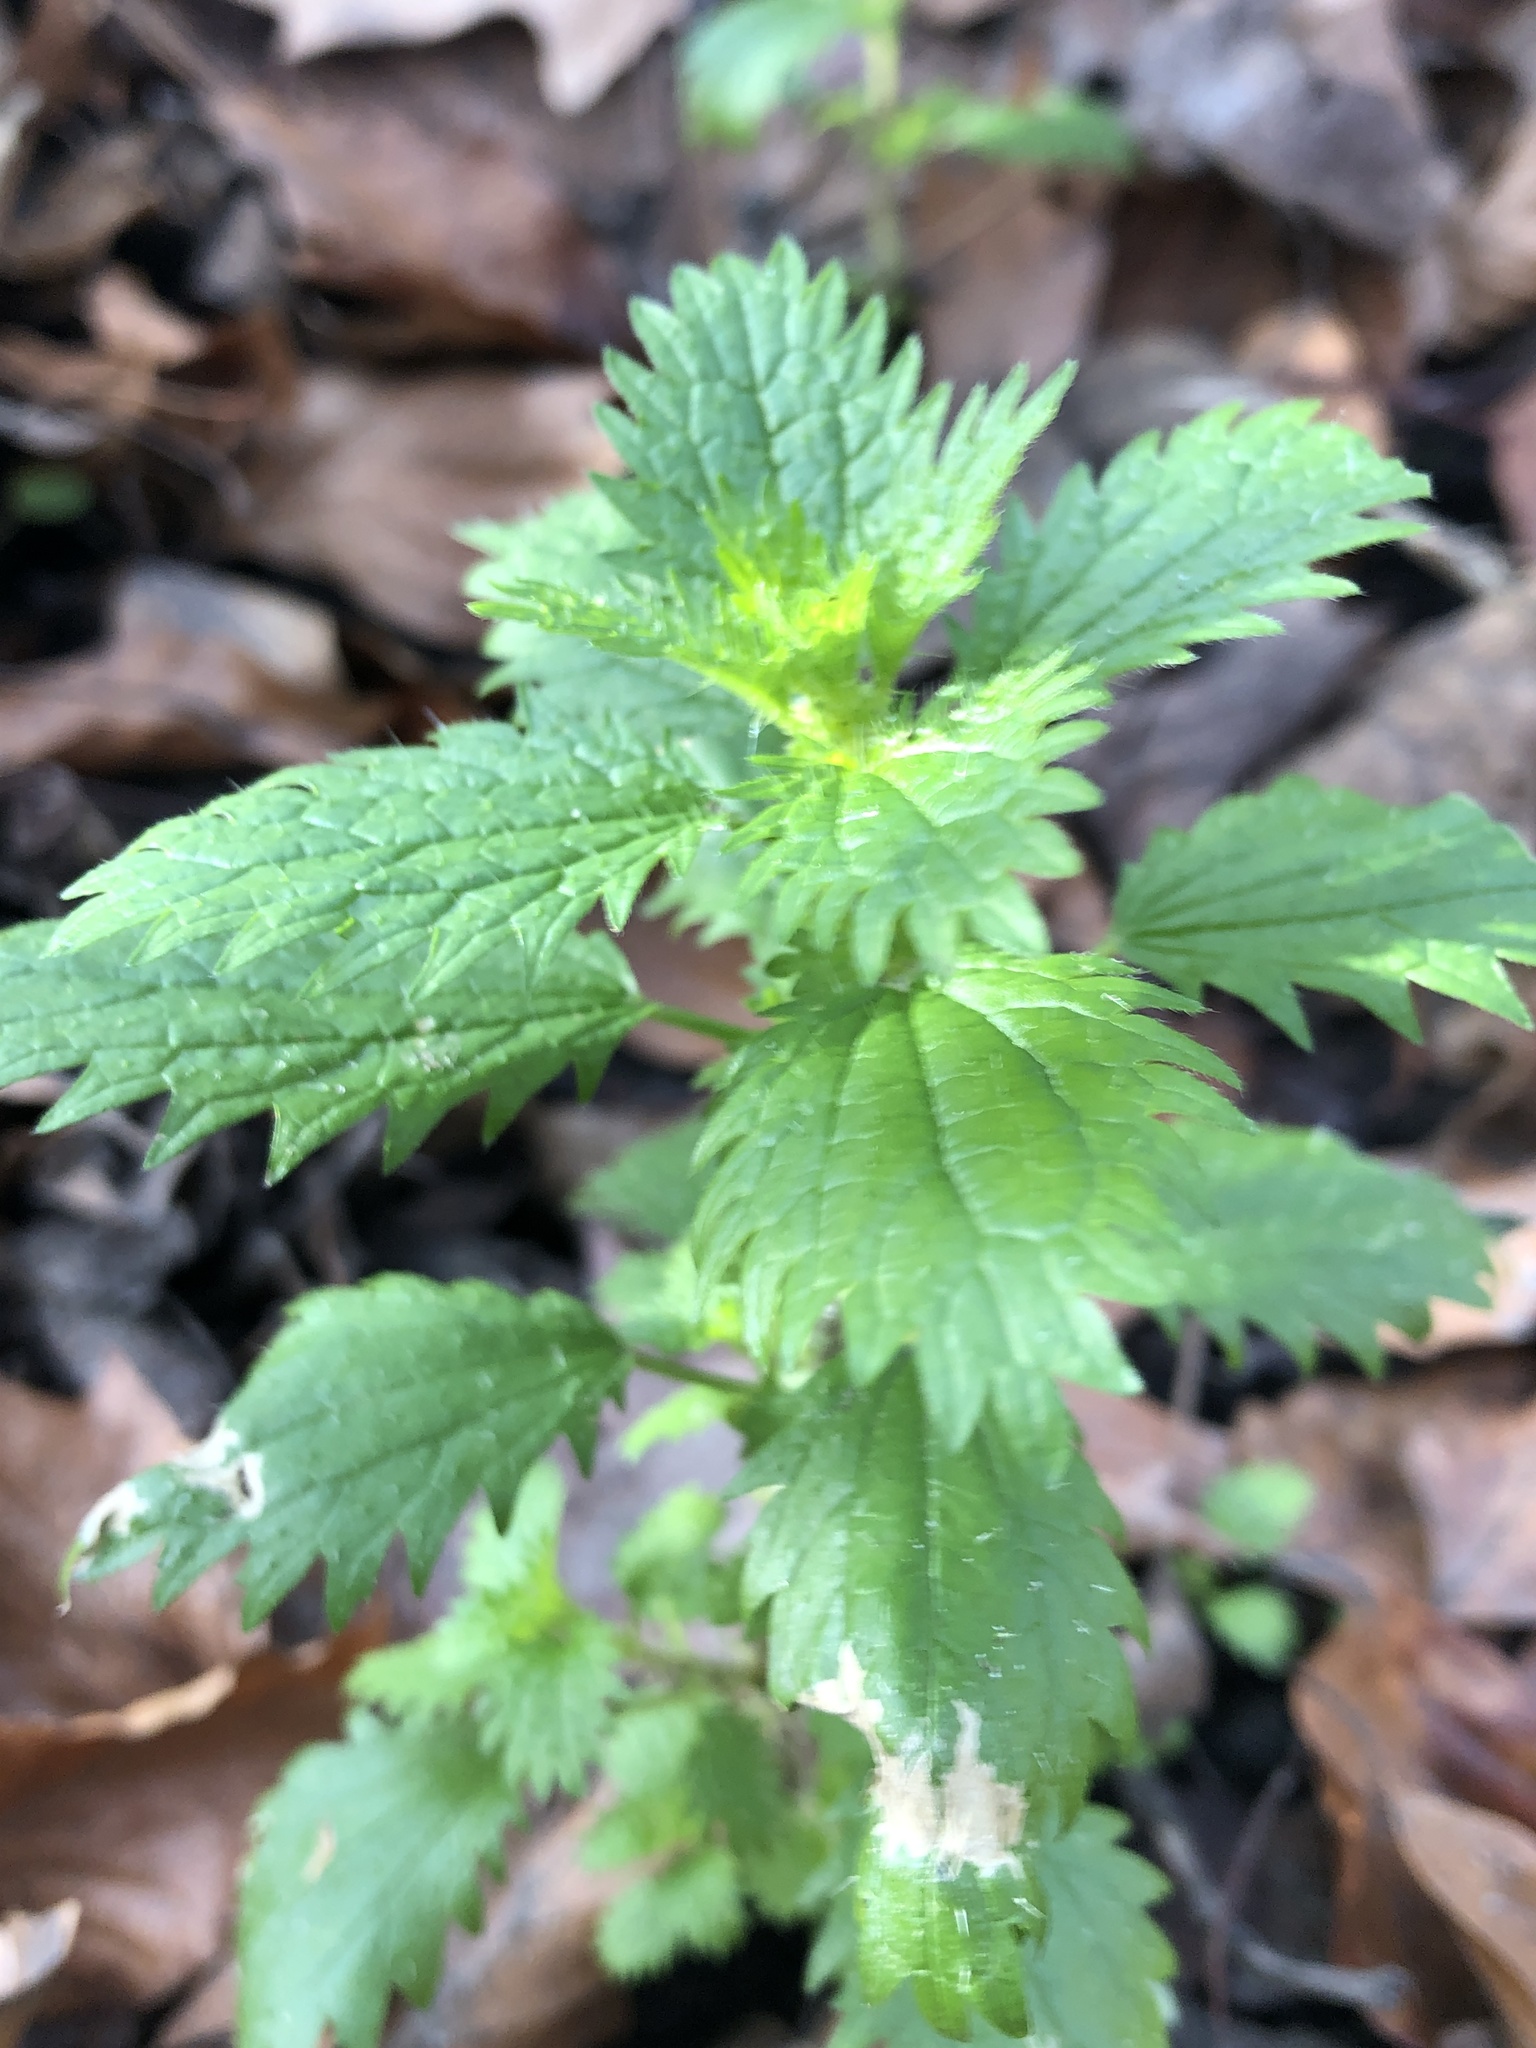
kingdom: Plantae
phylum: Tracheophyta
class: Magnoliopsida
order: Rosales
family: Urticaceae
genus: Urtica
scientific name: Urtica urens
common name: Dwarf nettle
